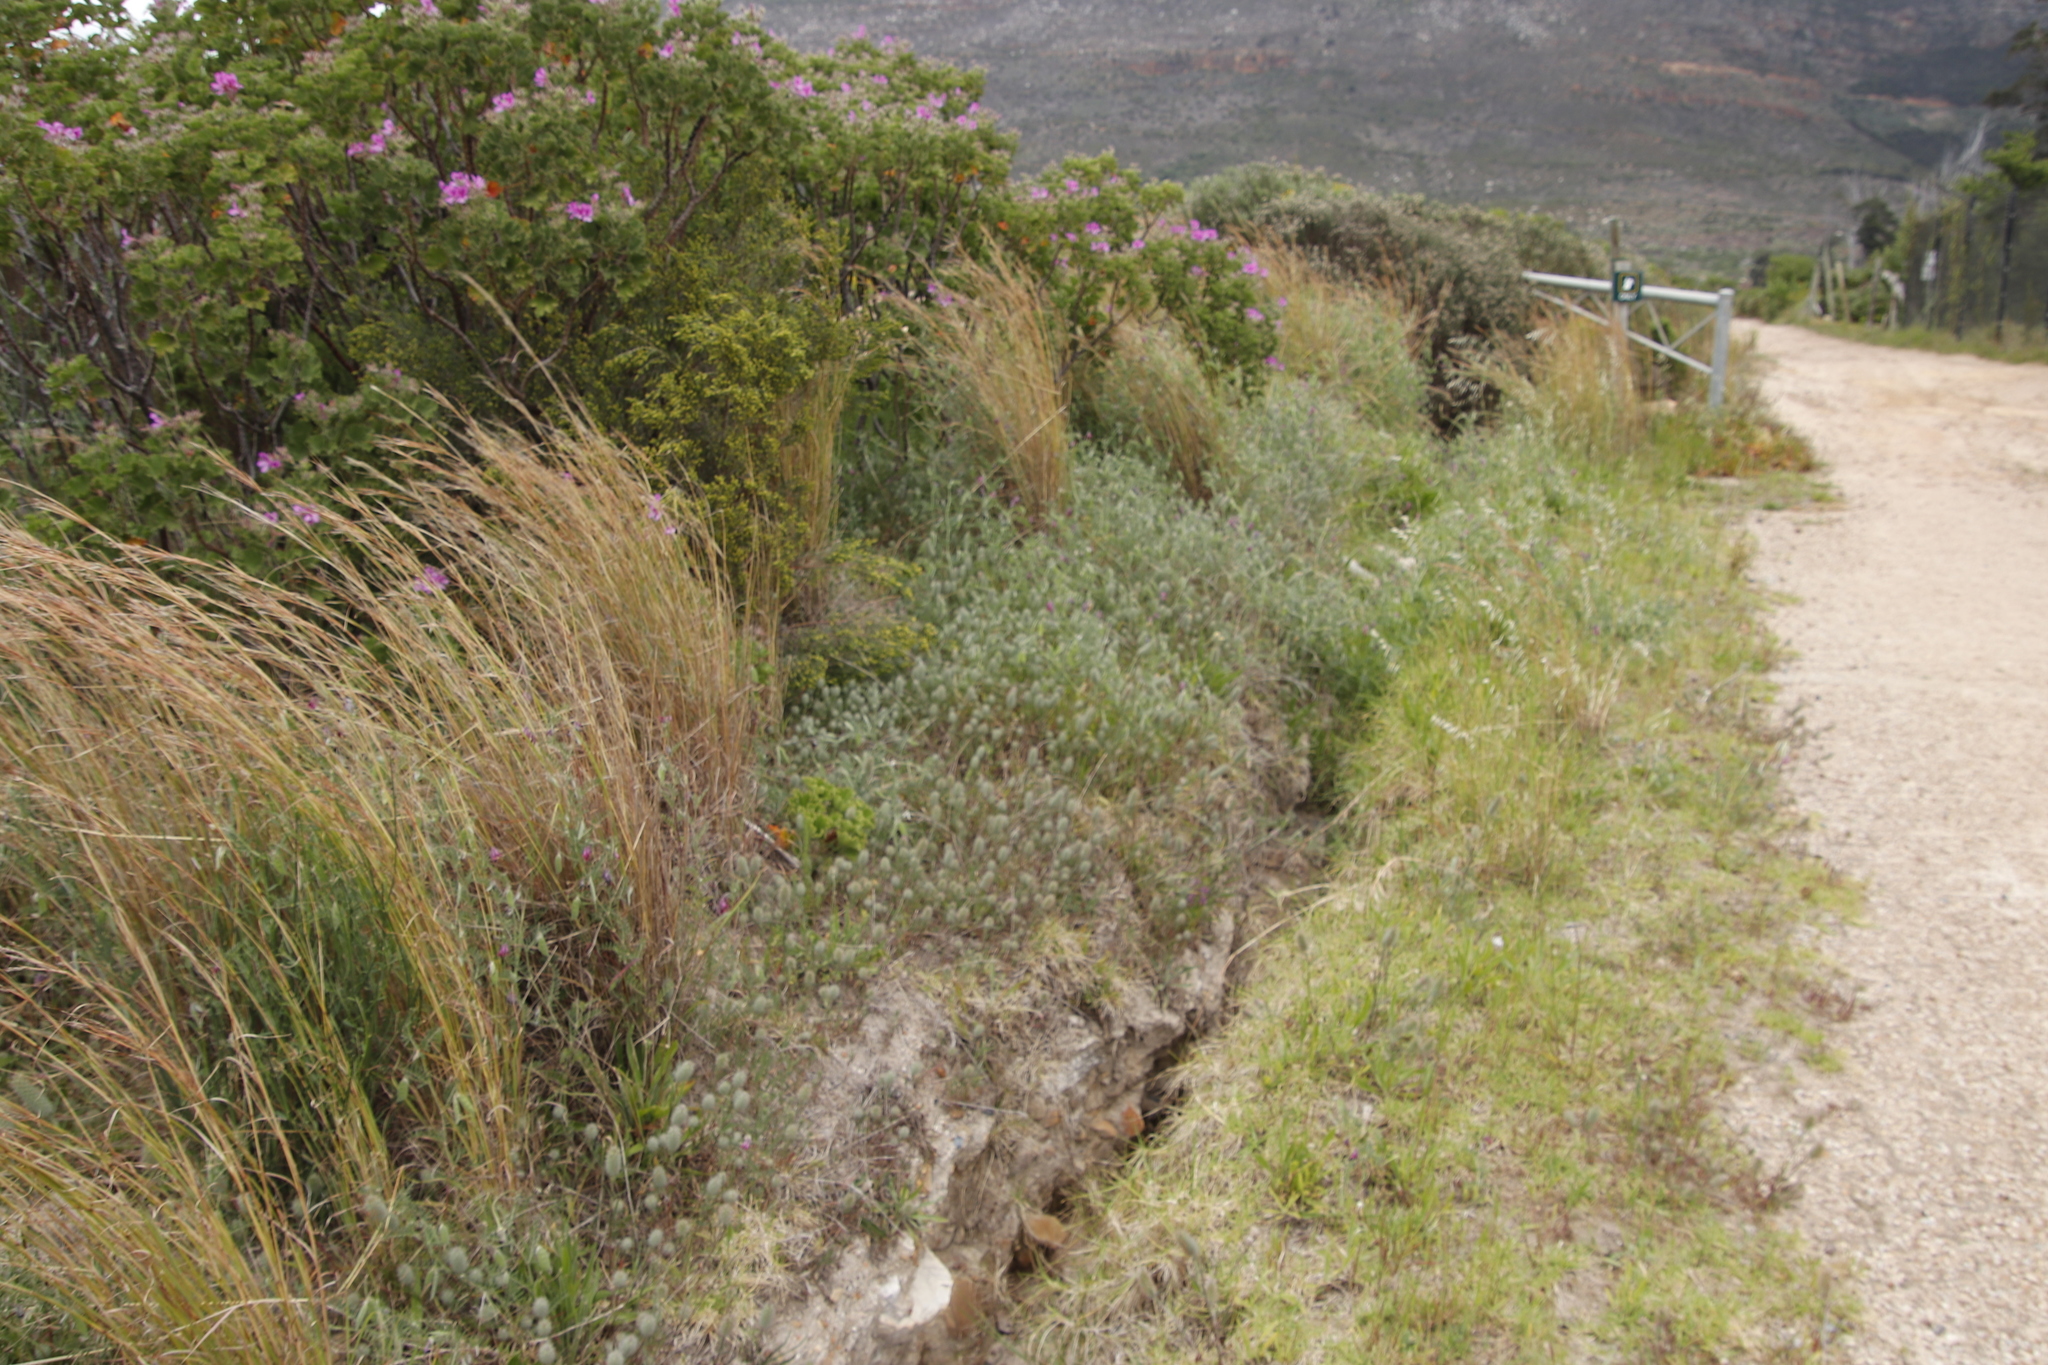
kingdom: Plantae
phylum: Tracheophyta
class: Magnoliopsida
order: Fabales
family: Fabaceae
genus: Trifolium
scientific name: Trifolium angustifolium
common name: Narrow clover
